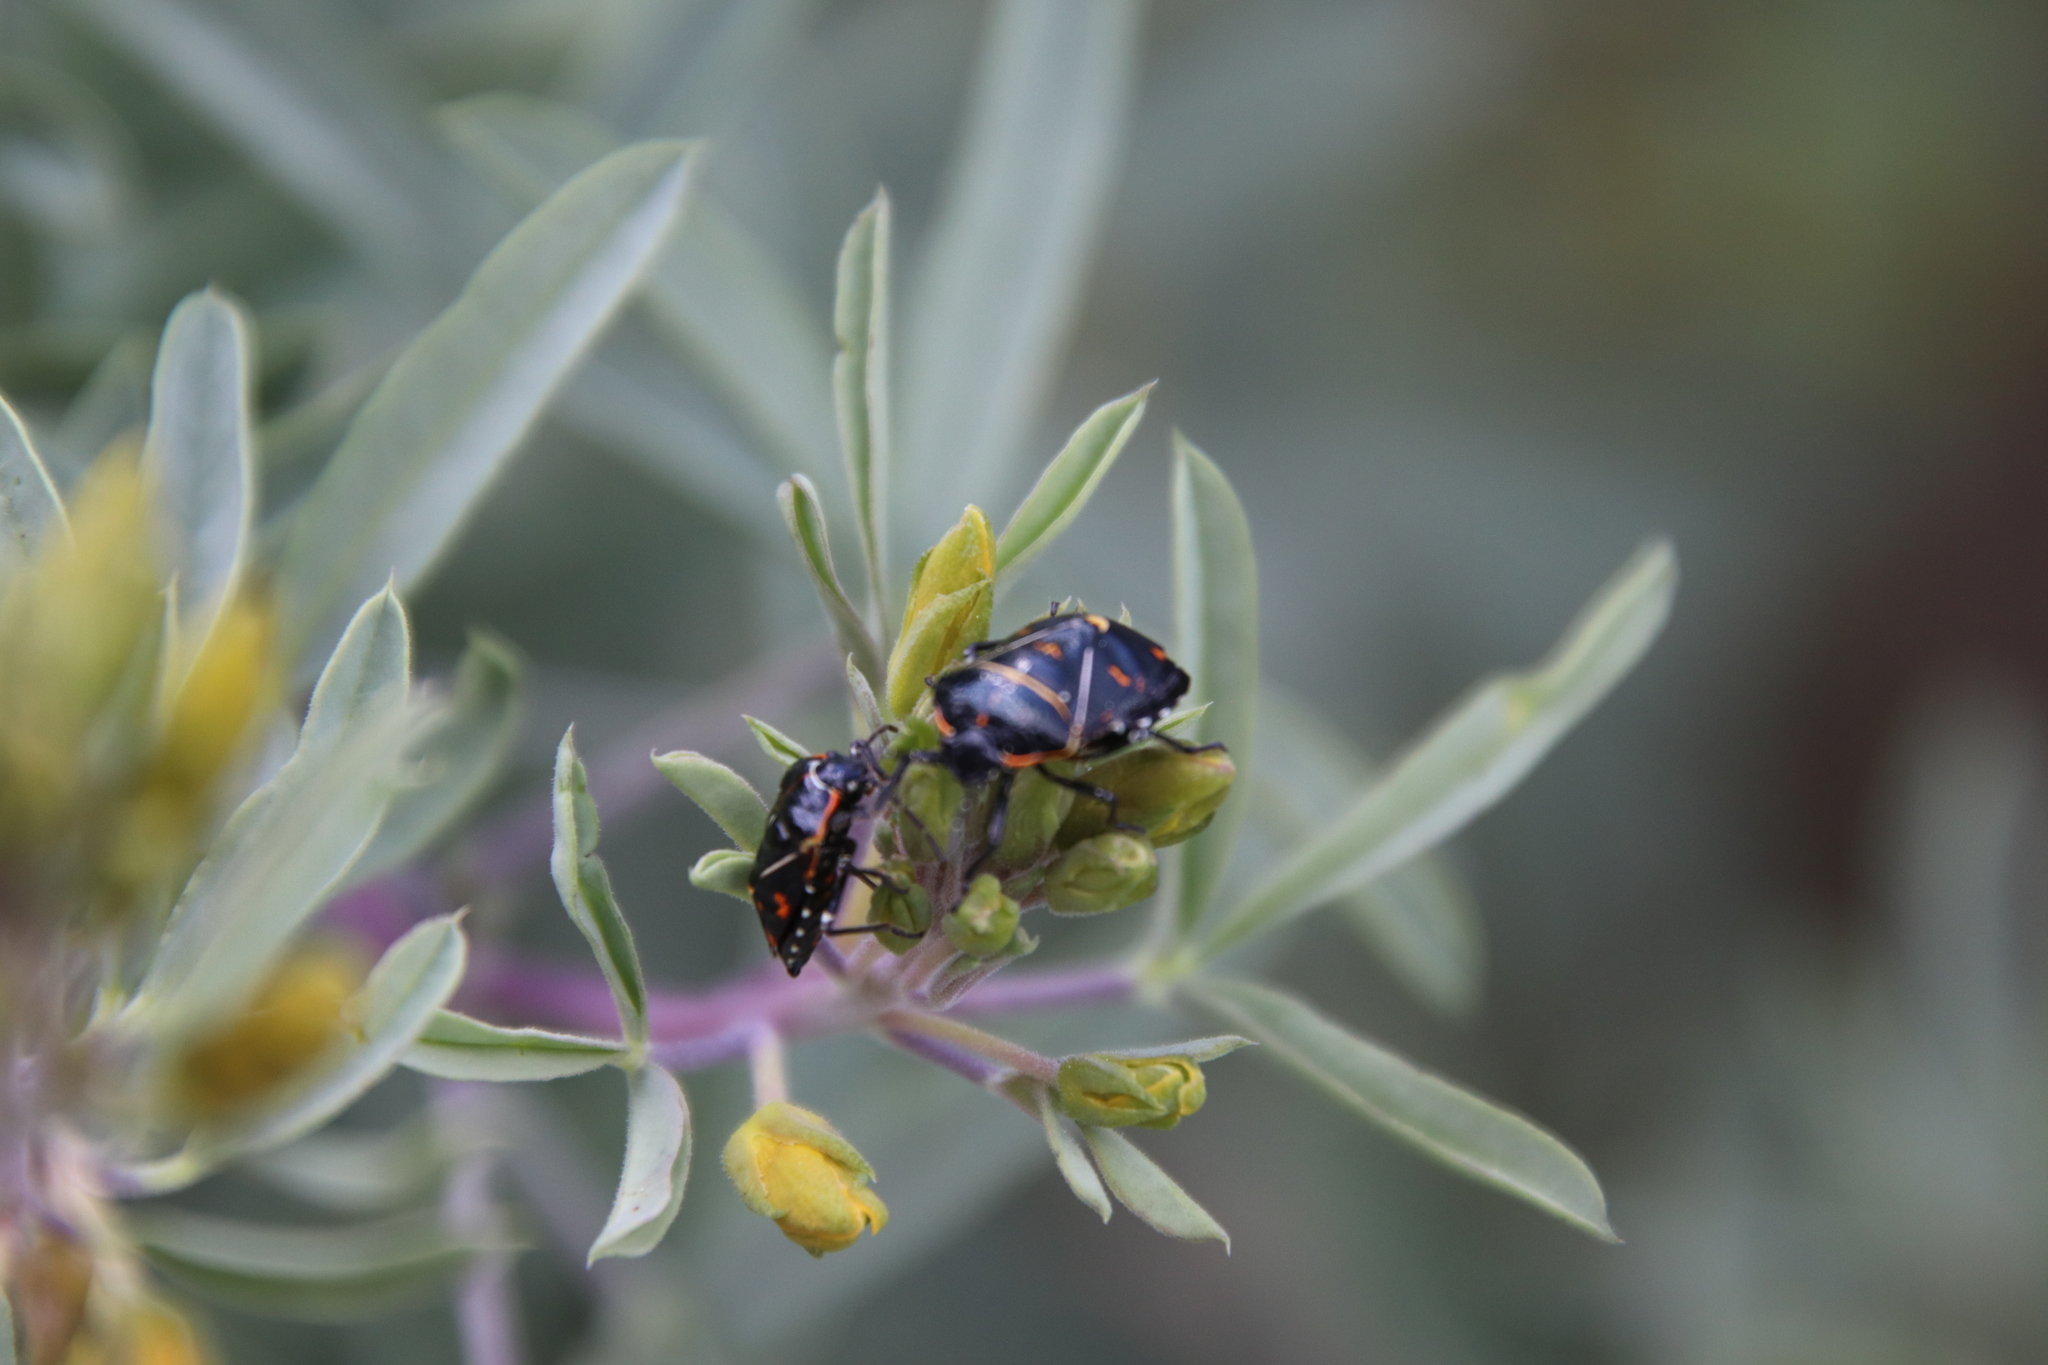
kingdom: Animalia
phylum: Arthropoda
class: Insecta
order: Hemiptera
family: Pentatomidae
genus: Murgantia
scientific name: Murgantia histrionica
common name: Harlequin bug
